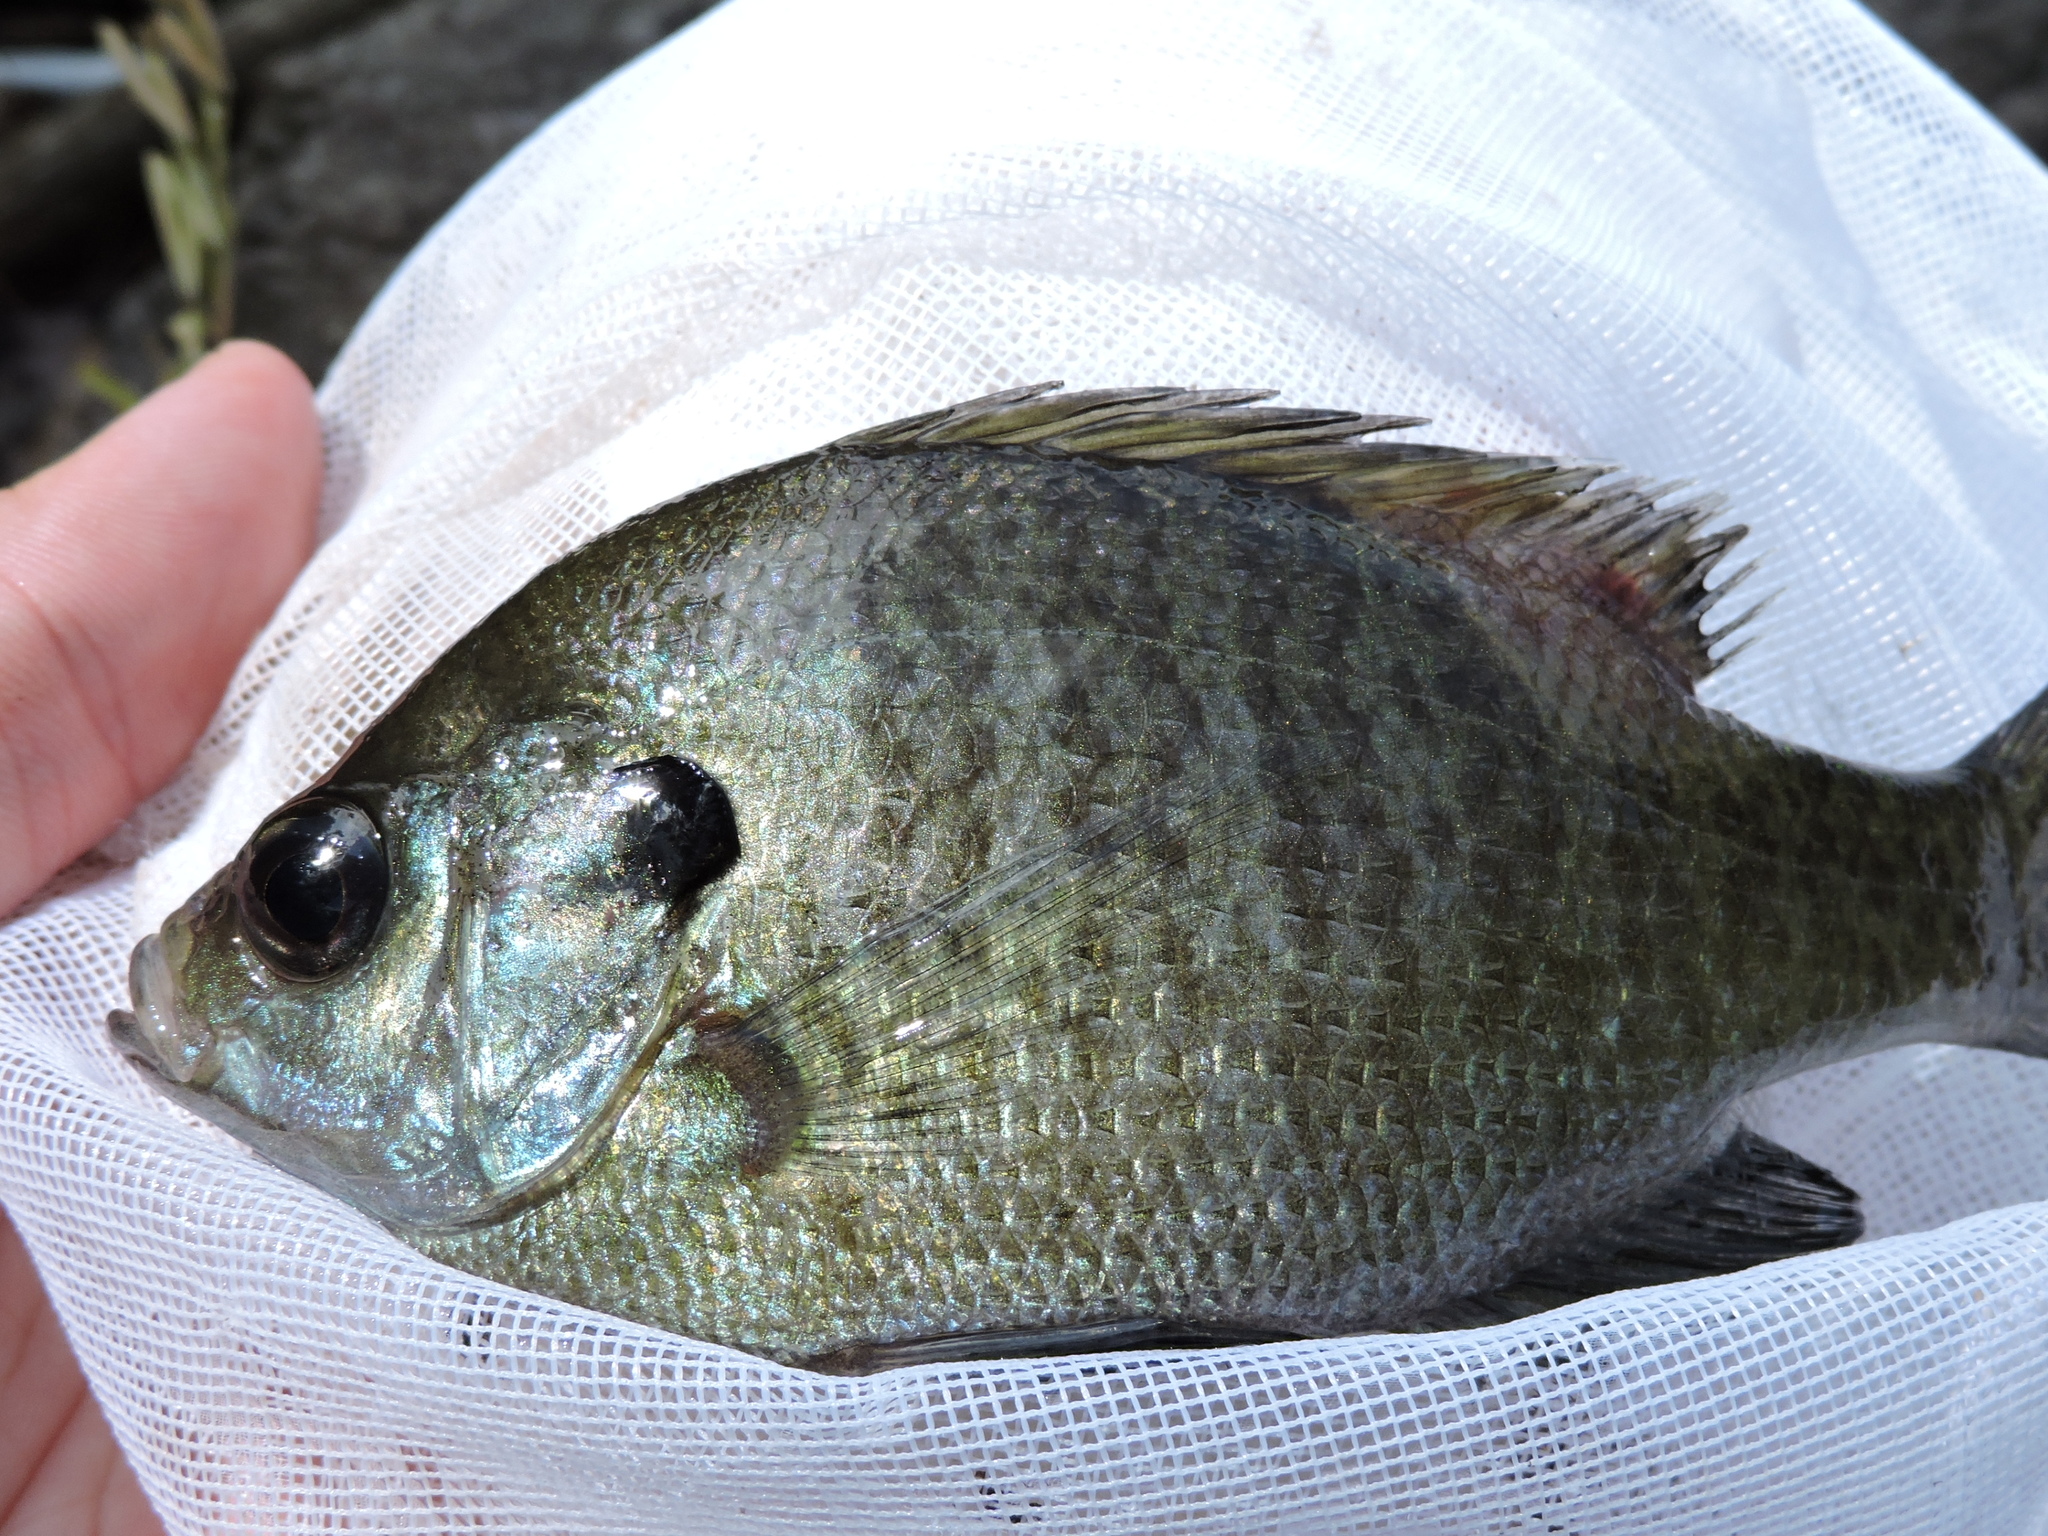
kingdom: Animalia
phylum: Chordata
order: Perciformes
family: Centrarchidae
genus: Lepomis
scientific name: Lepomis macrochirus
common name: Bluegill
